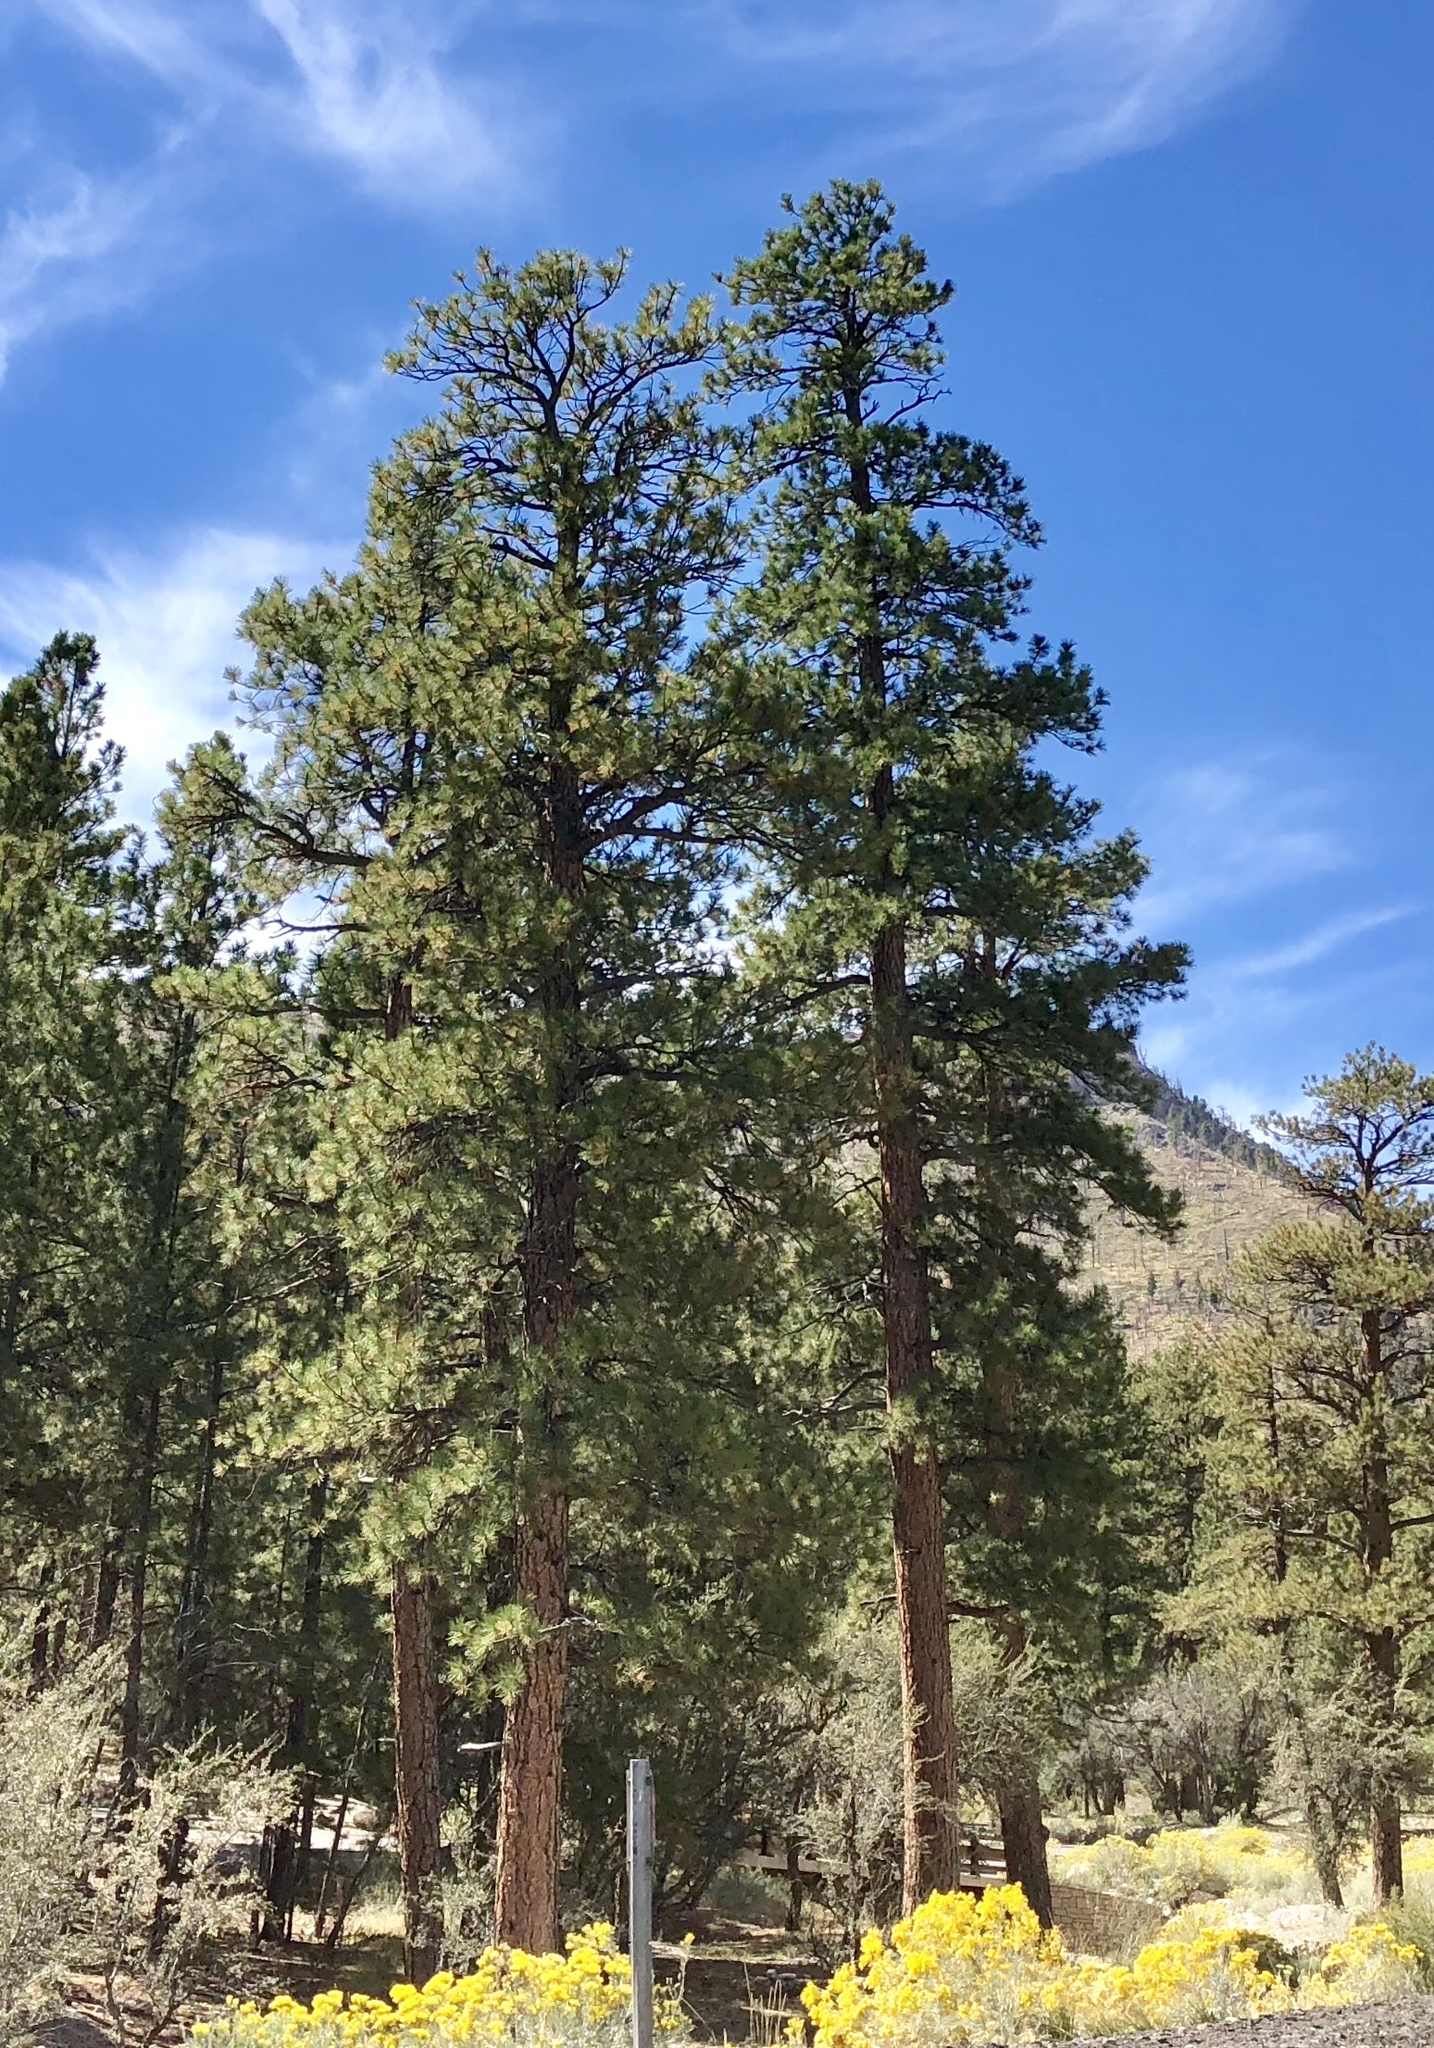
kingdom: Plantae
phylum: Tracheophyta
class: Pinopsida
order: Pinales
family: Pinaceae
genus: Pinus
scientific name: Pinus ponderosa
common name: Western yellow-pine
